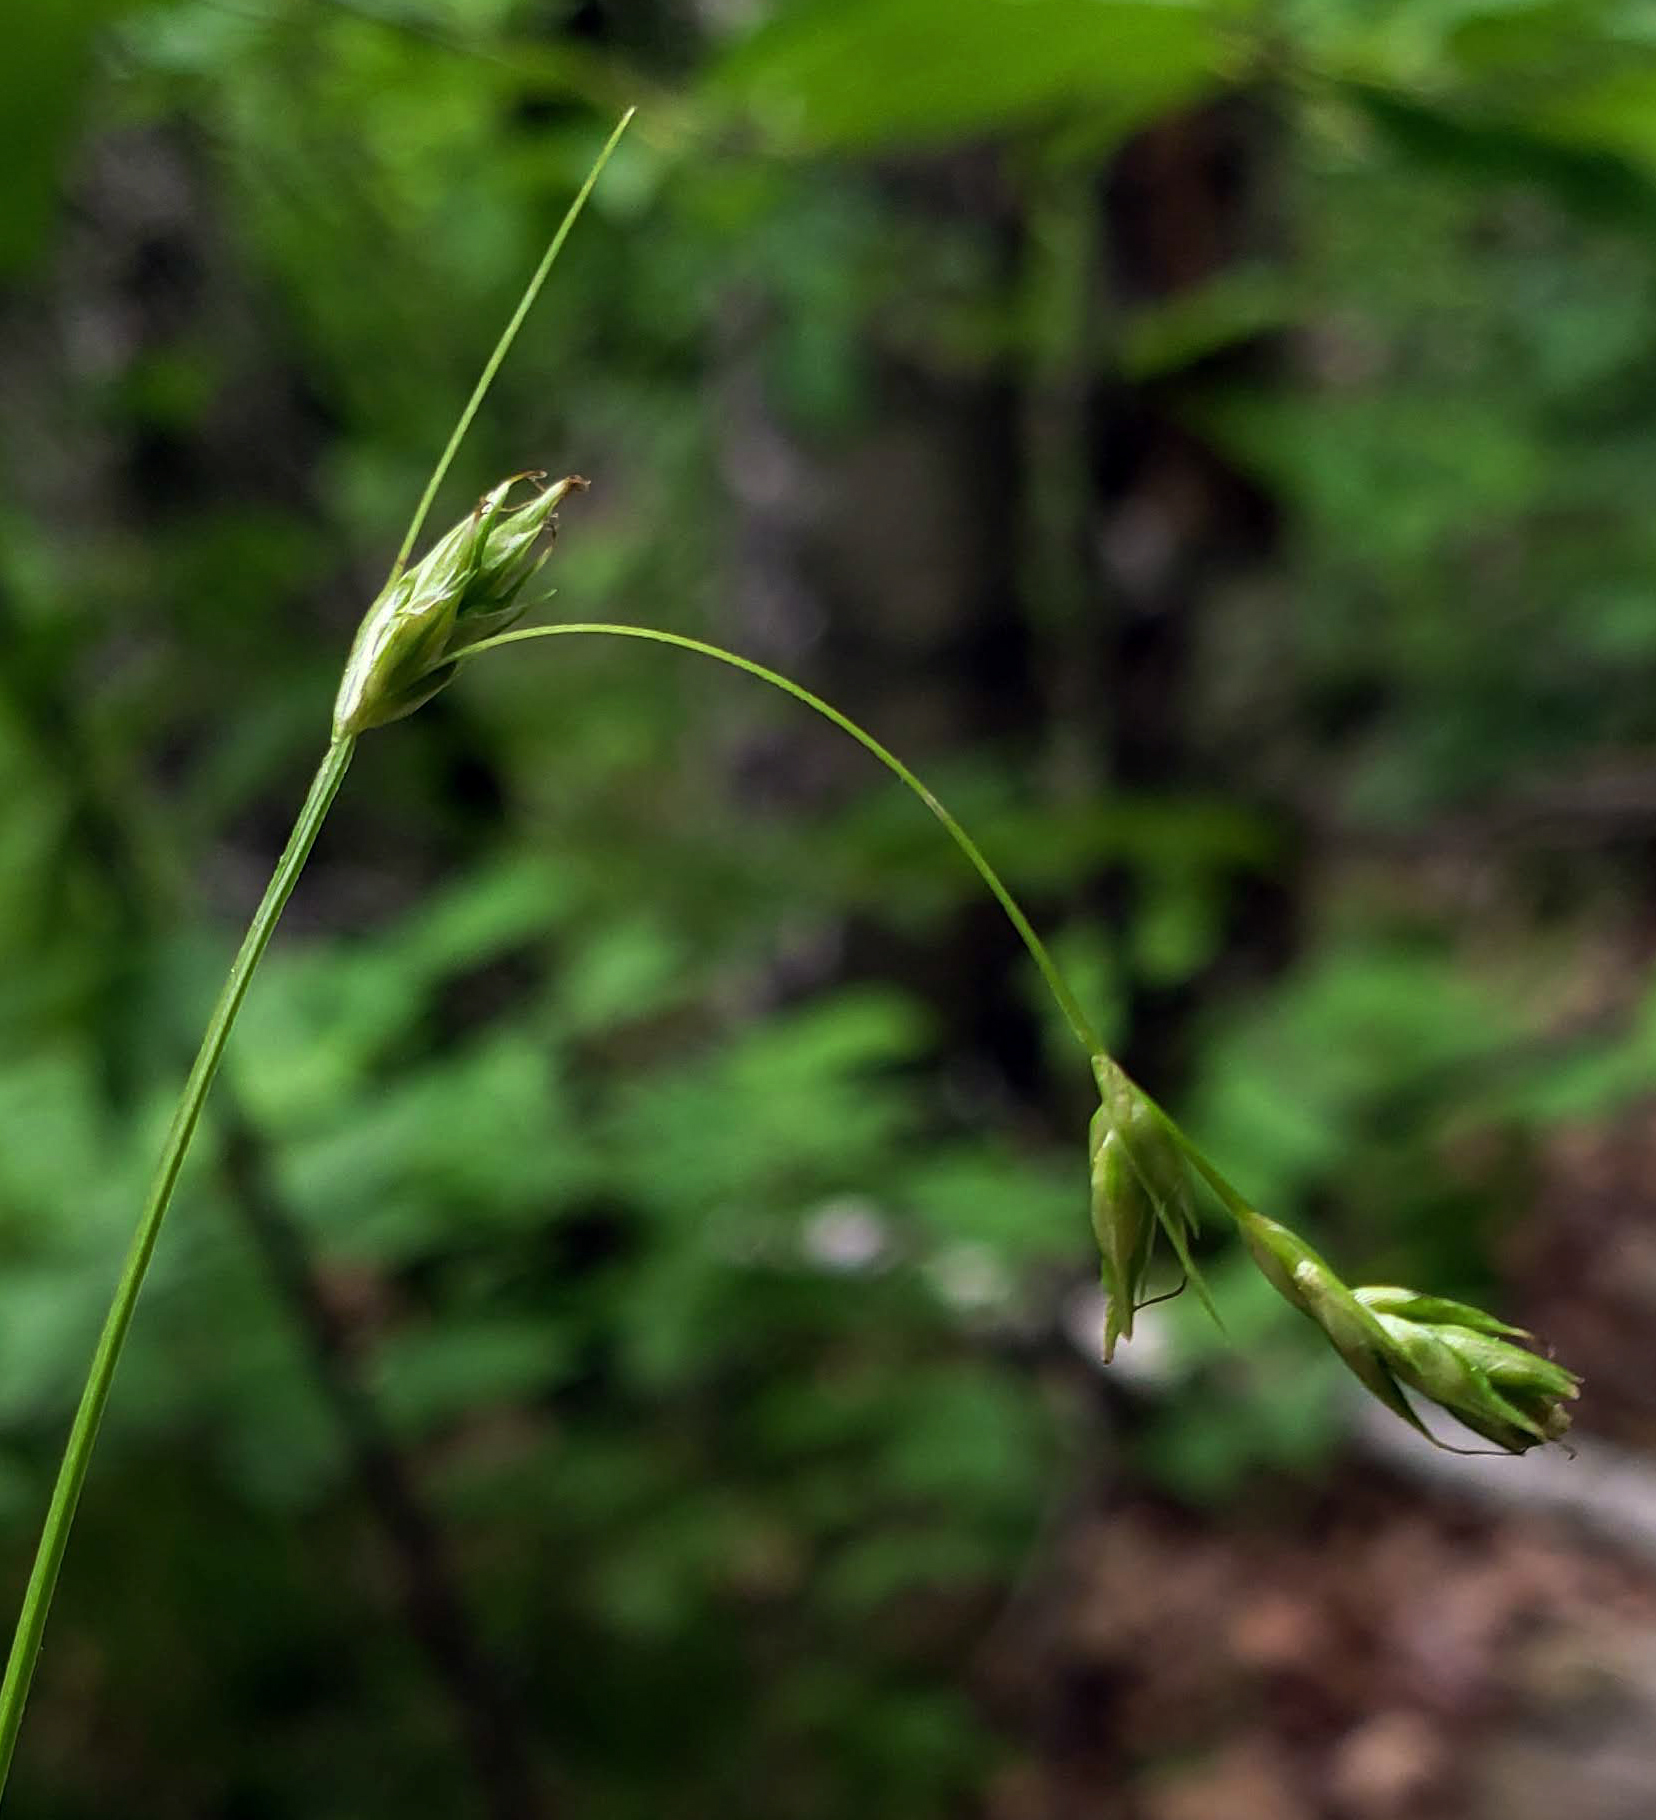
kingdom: Plantae
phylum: Tracheophyta
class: Liliopsida
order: Poales
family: Cyperaceae
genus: Carex
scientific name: Carex deweyana
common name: Dewey's sedge
